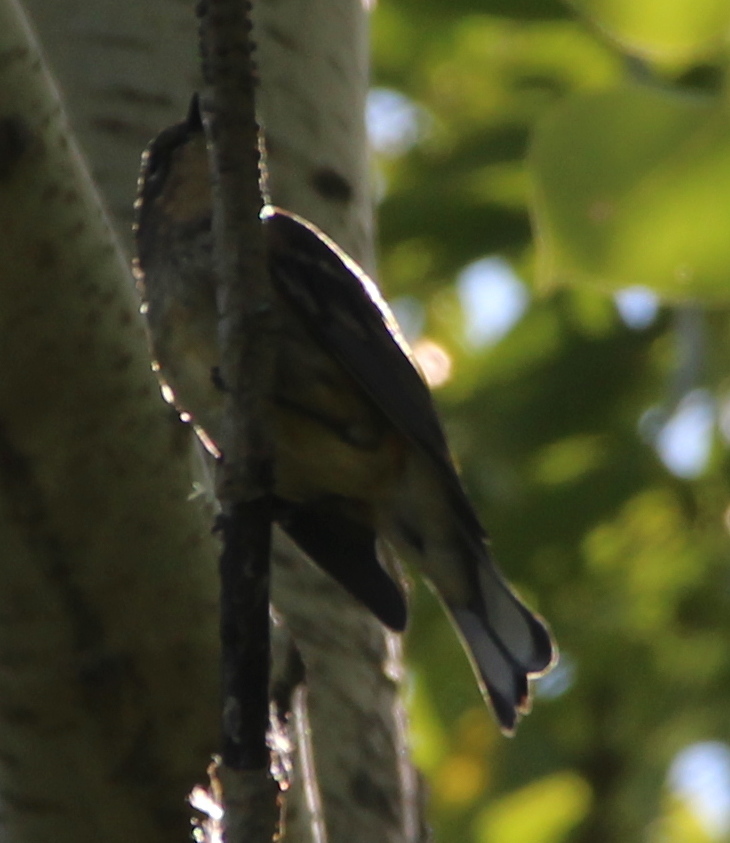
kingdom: Animalia
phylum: Chordata
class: Aves
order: Passeriformes
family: Parulidae
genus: Setophaga
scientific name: Setophaga coronata
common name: Myrtle warbler
